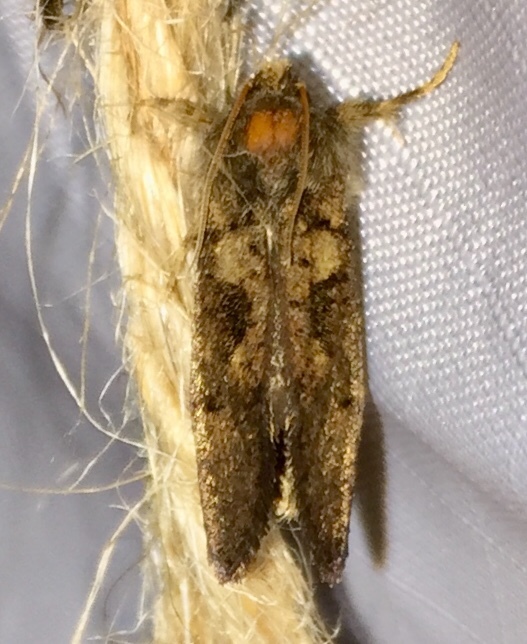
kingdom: Animalia
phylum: Arthropoda
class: Insecta
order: Lepidoptera
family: Tineidae
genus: Acrolophus
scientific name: Acrolophus mora
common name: Dark acrolophus
